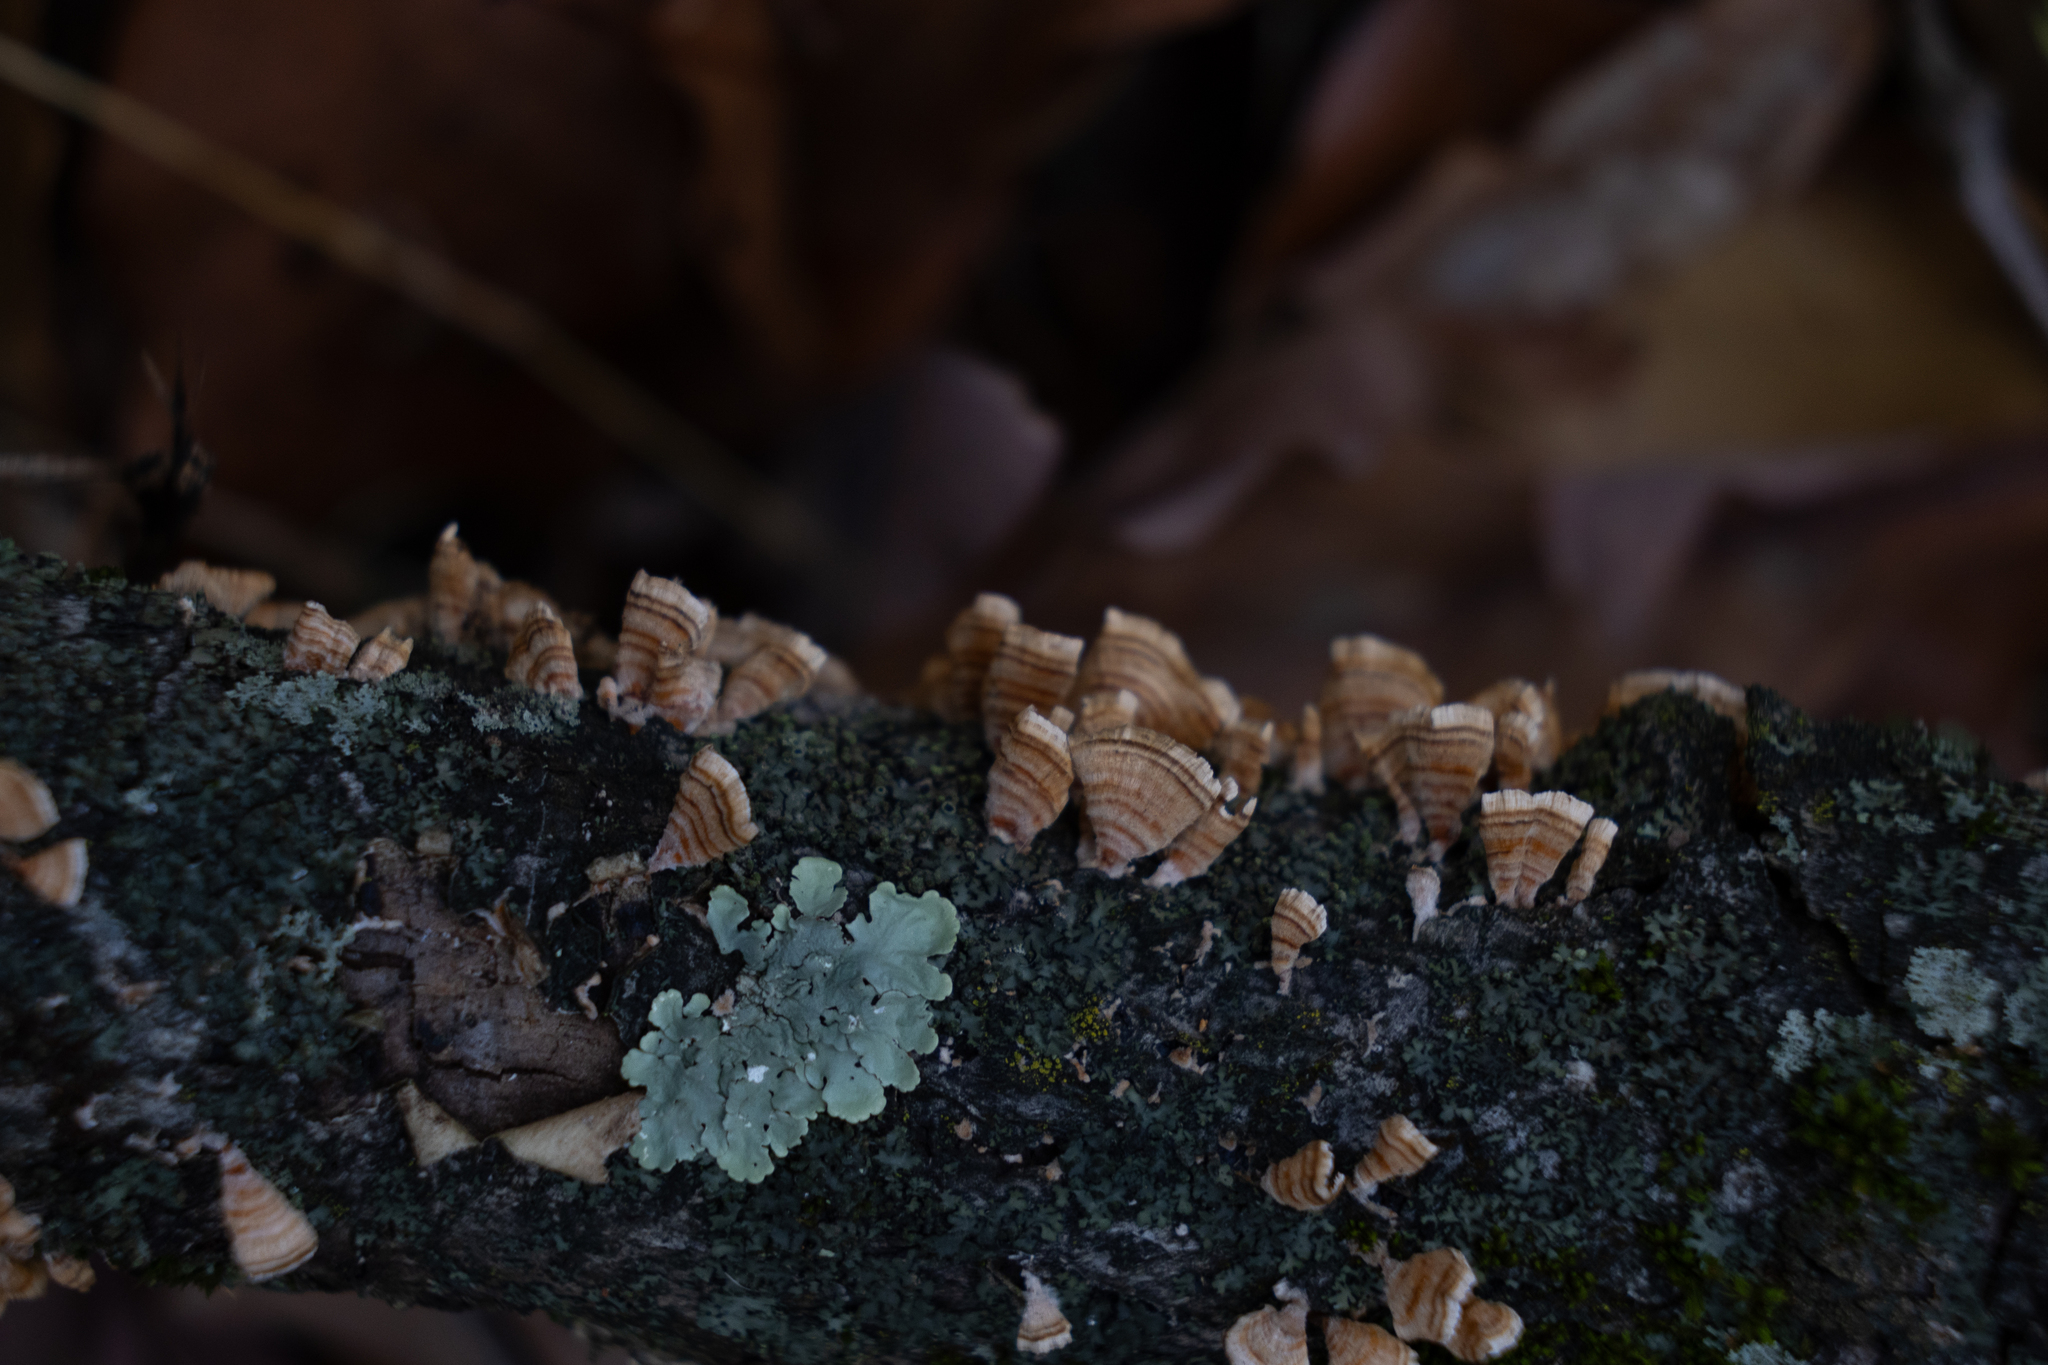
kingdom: Fungi
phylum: Basidiomycota
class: Agaricomycetes
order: Russulales
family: Stereaceae
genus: Stereum
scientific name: Stereum complicatum
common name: Crowded parchment
